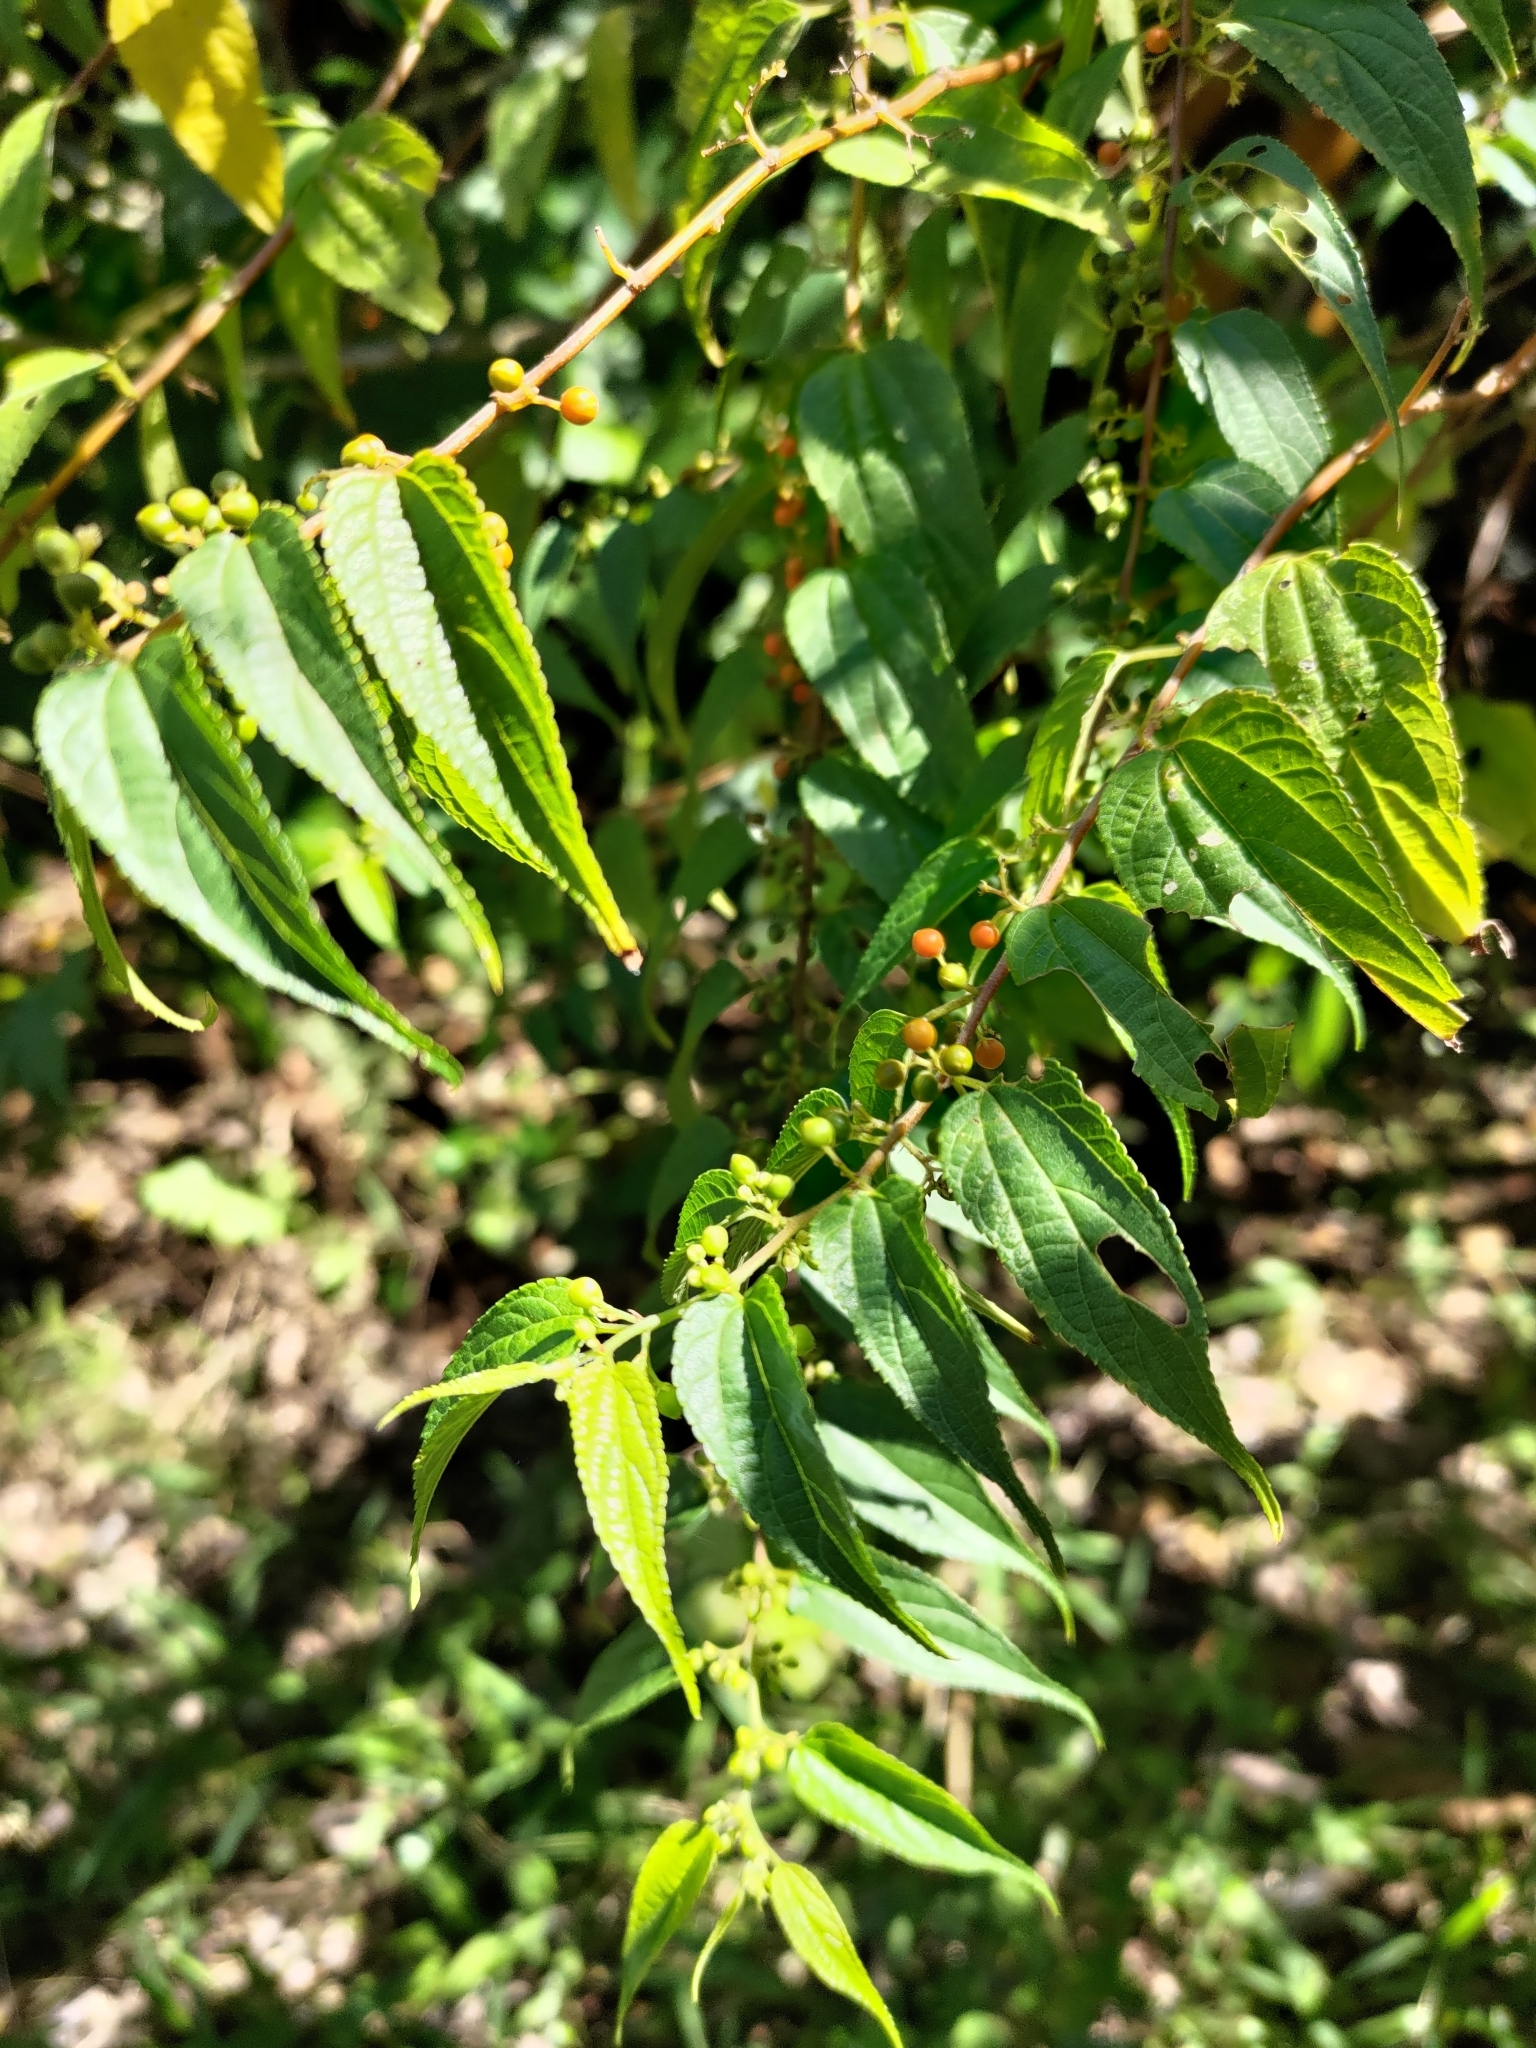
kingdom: Plantae
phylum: Tracheophyta
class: Magnoliopsida
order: Rosales
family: Cannabaceae
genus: Trema
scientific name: Trema cannabina
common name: Poison-peach
